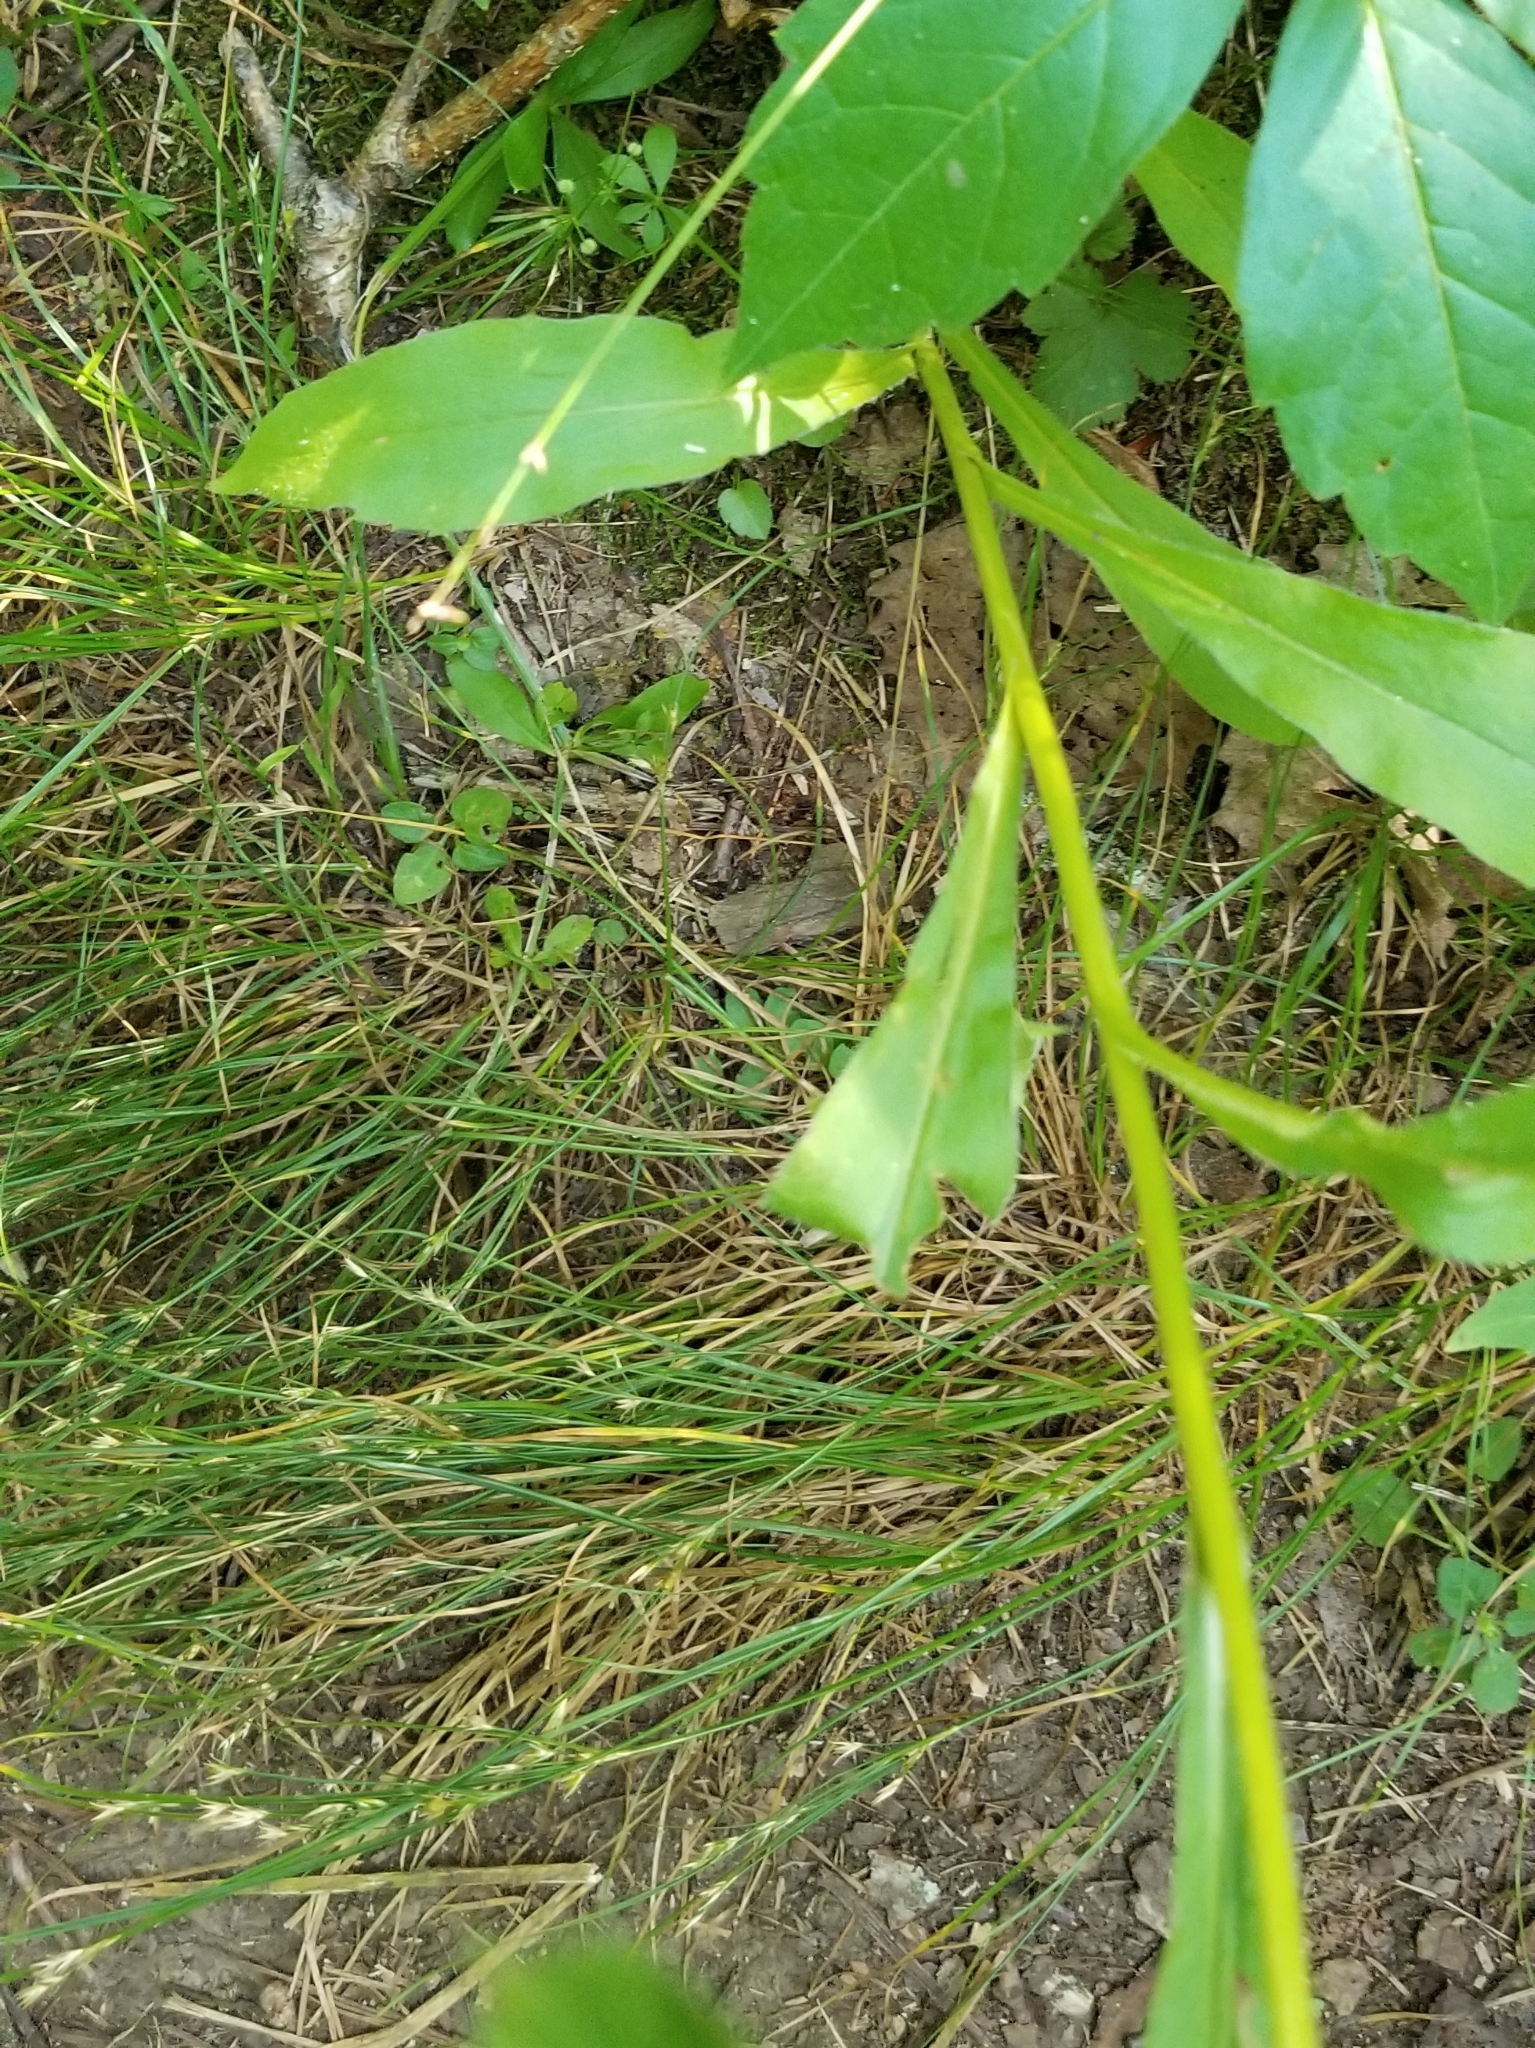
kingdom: Plantae
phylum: Tracheophyta
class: Magnoliopsida
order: Asterales
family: Asteraceae
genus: Solidago
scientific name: Solidago juncea
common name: Early goldenrod
